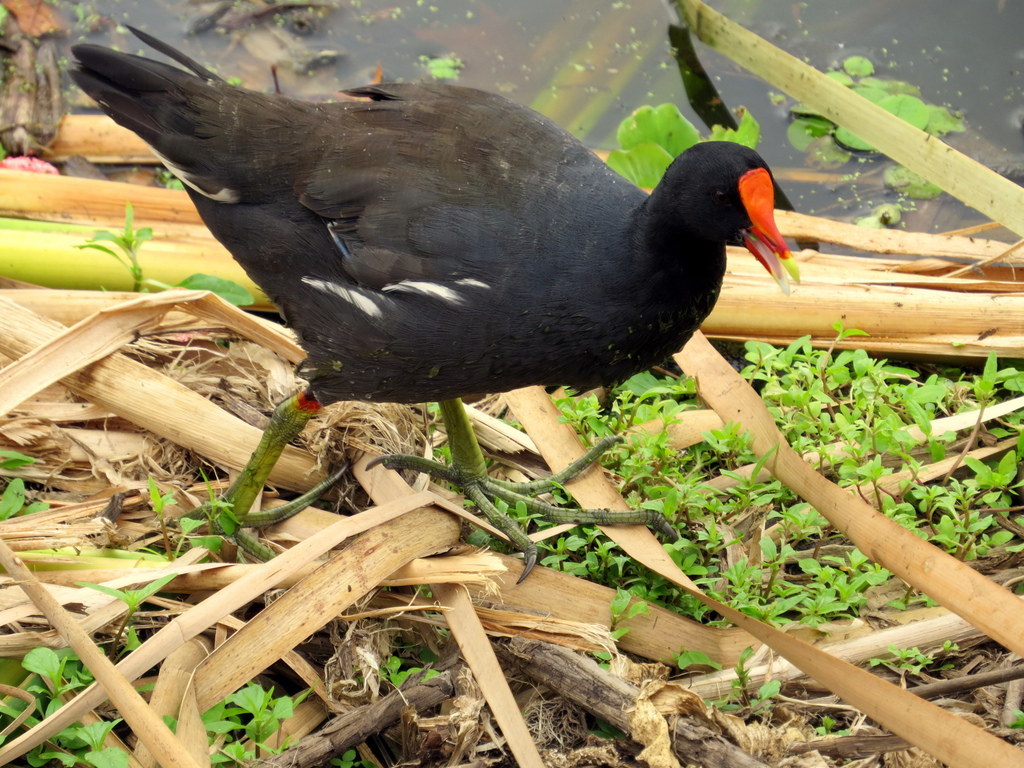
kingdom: Animalia
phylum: Chordata
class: Aves
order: Gruiformes
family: Rallidae
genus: Gallinula
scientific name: Gallinula chloropus
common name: Common moorhen
